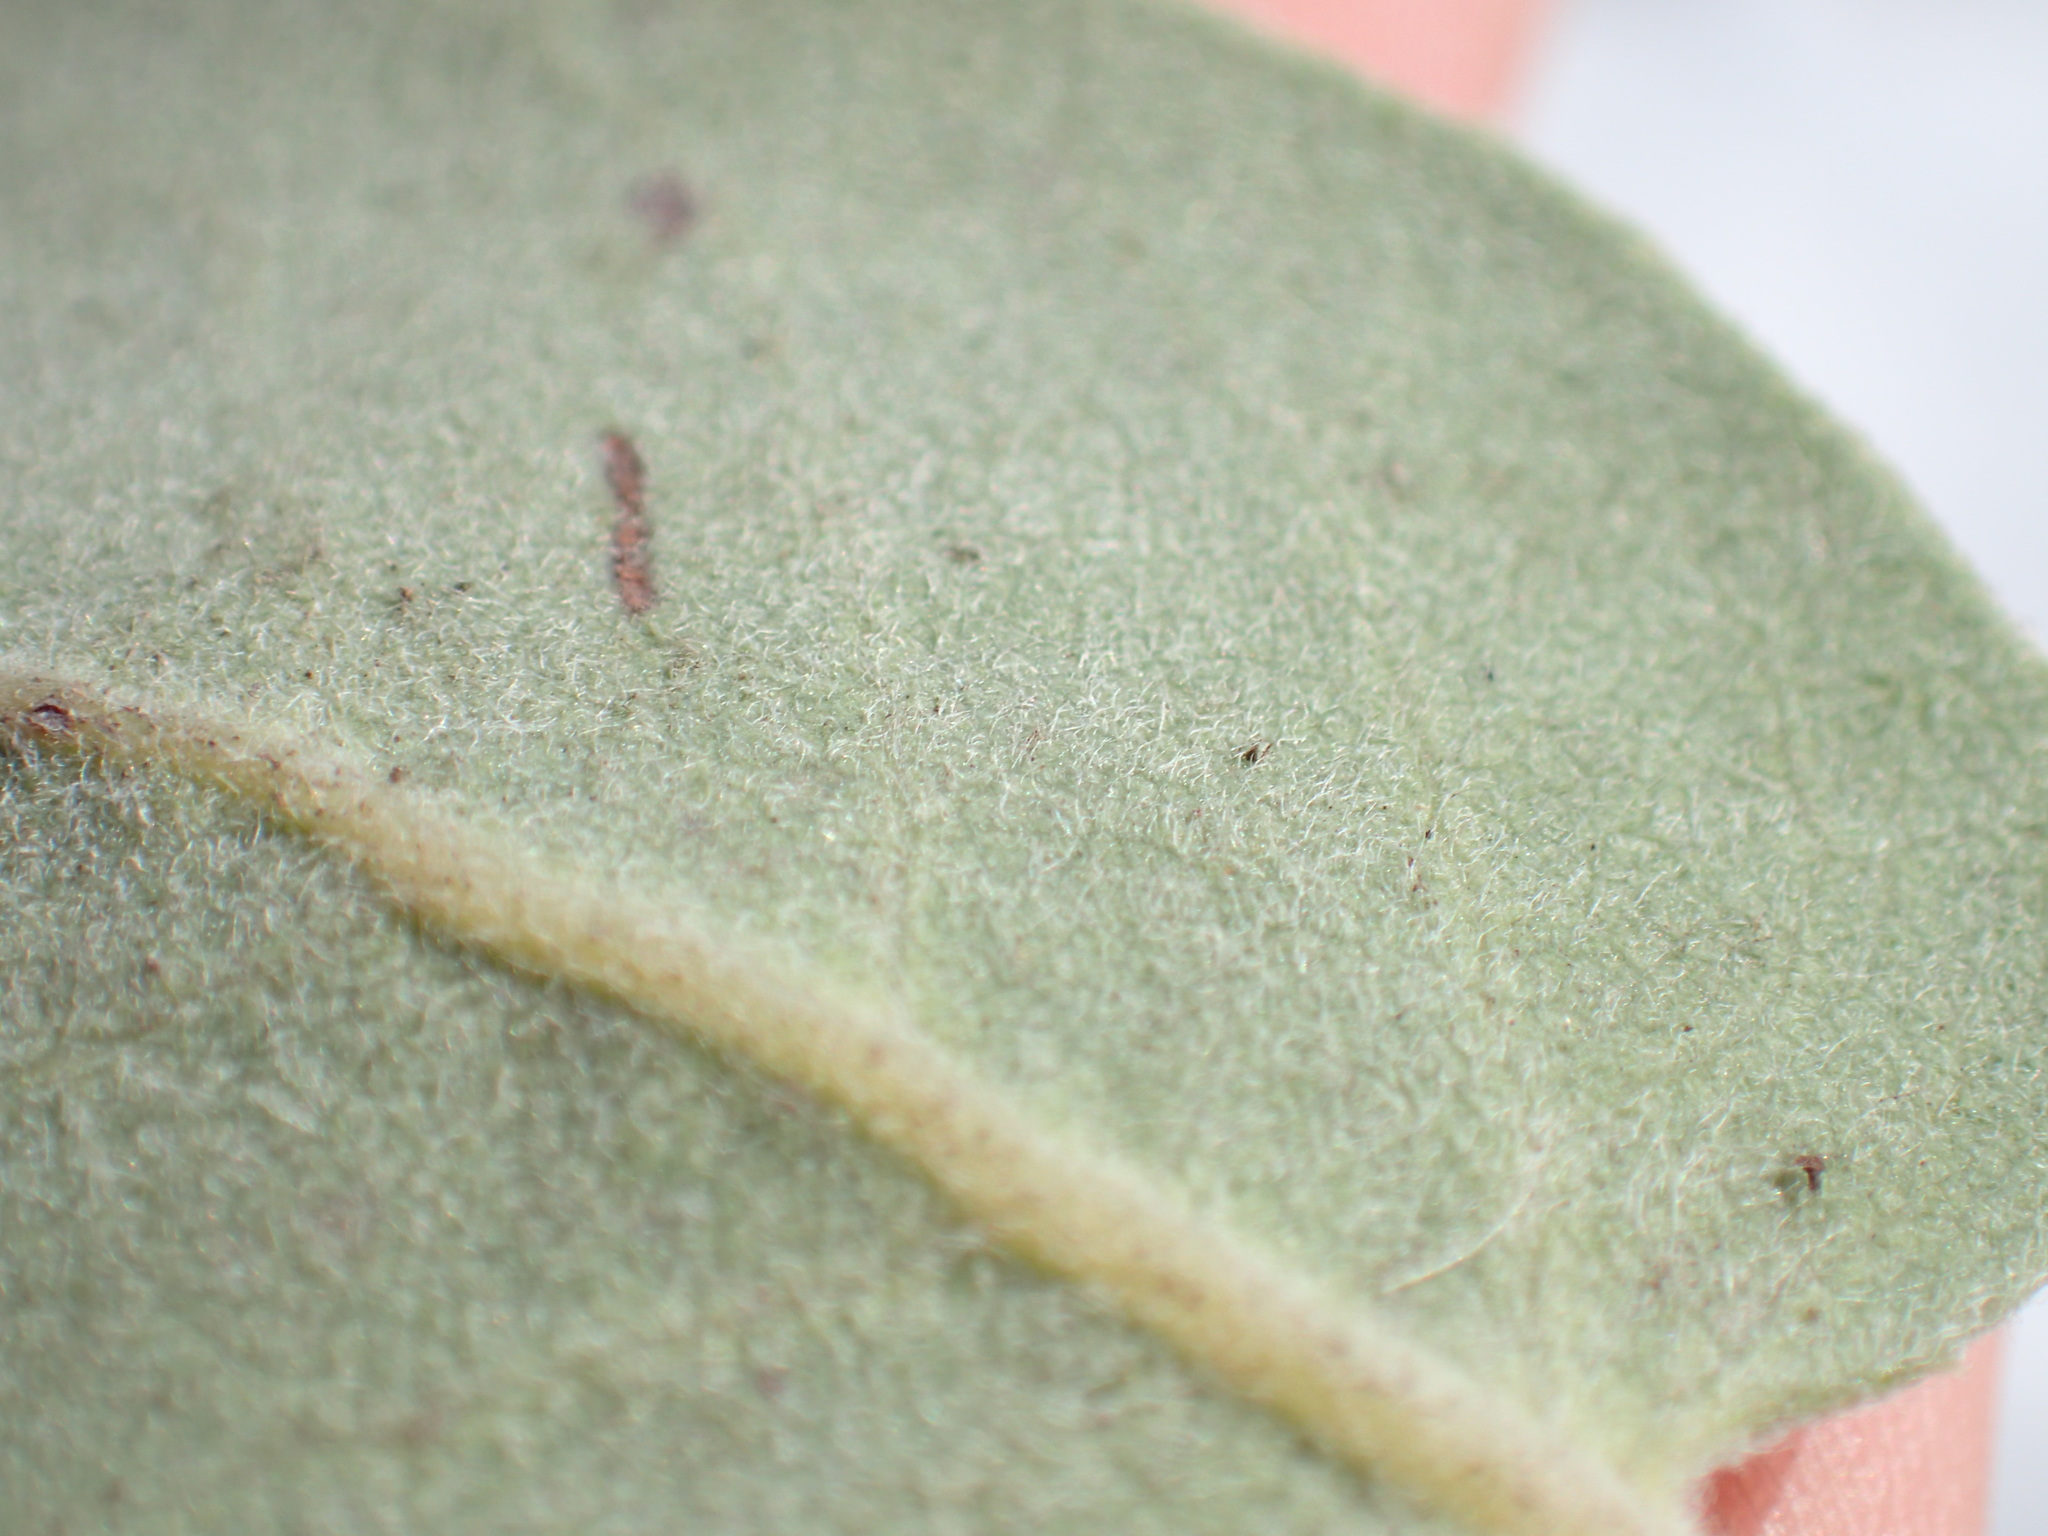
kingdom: Plantae
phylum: Tracheophyta
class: Magnoliopsida
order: Ericales
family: Ericaceae
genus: Arctostaphylos
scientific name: Arctostaphylos crustacea
